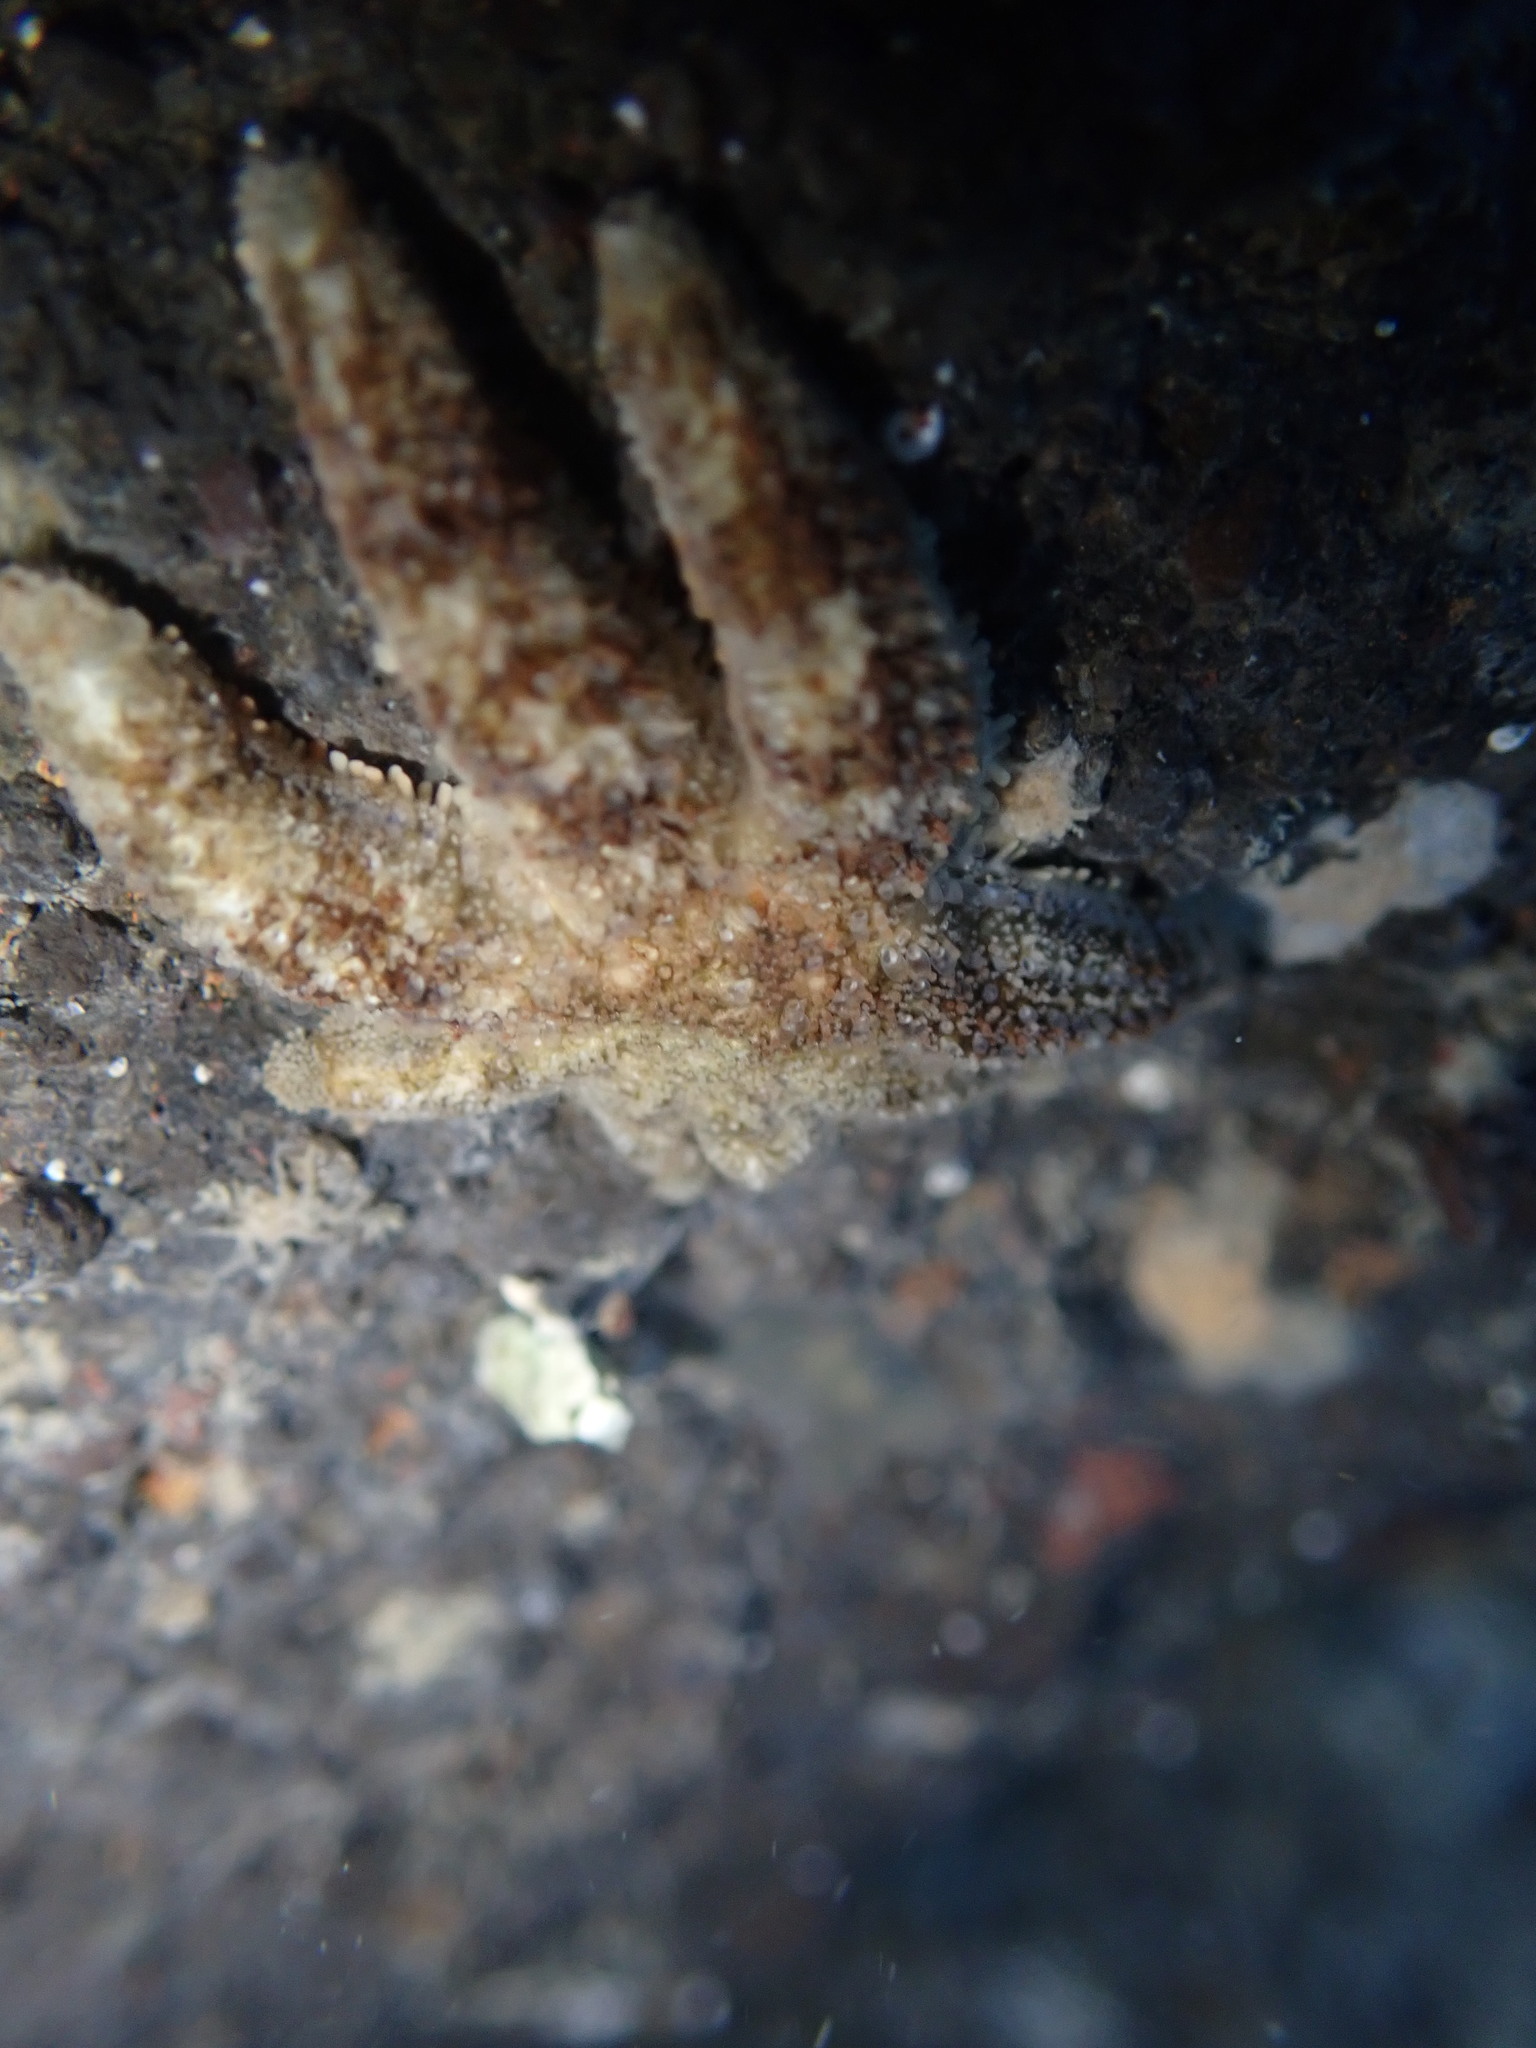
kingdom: Animalia
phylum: Echinodermata
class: Asteroidea
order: Forcipulatida
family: Stichasteridae
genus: Allostichaster
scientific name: Allostichaster polyplax
